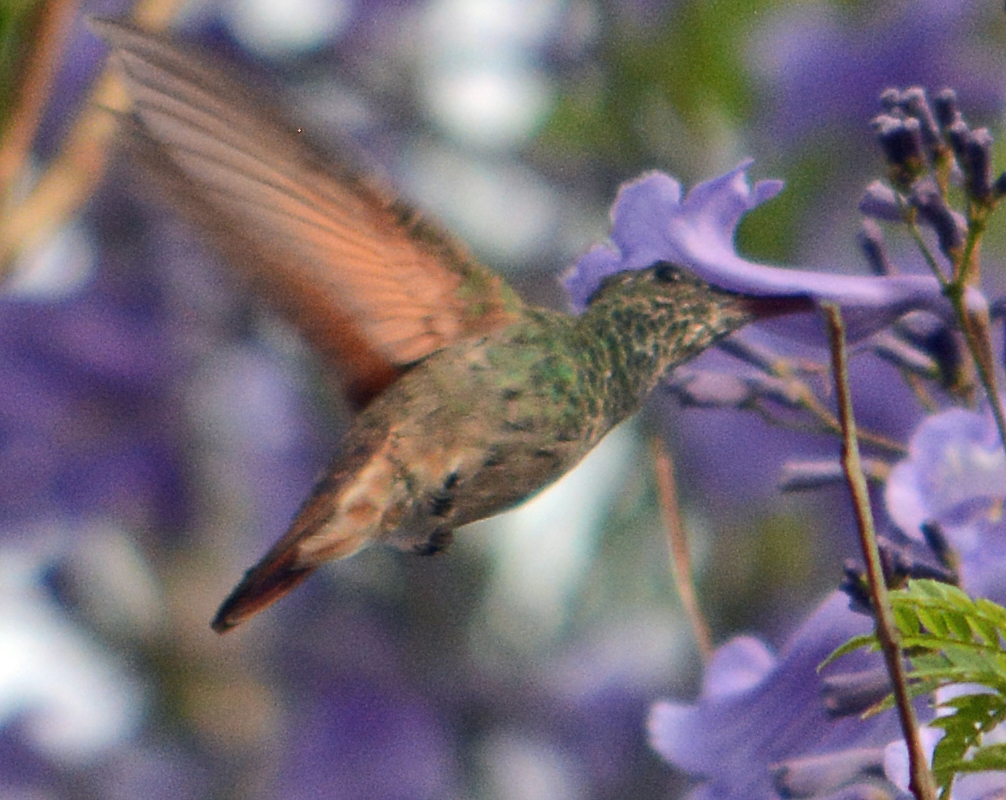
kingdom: Animalia
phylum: Chordata
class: Aves
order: Apodiformes
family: Trochilidae
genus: Saucerottia
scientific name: Saucerottia beryllina
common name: Berylline hummingbird
